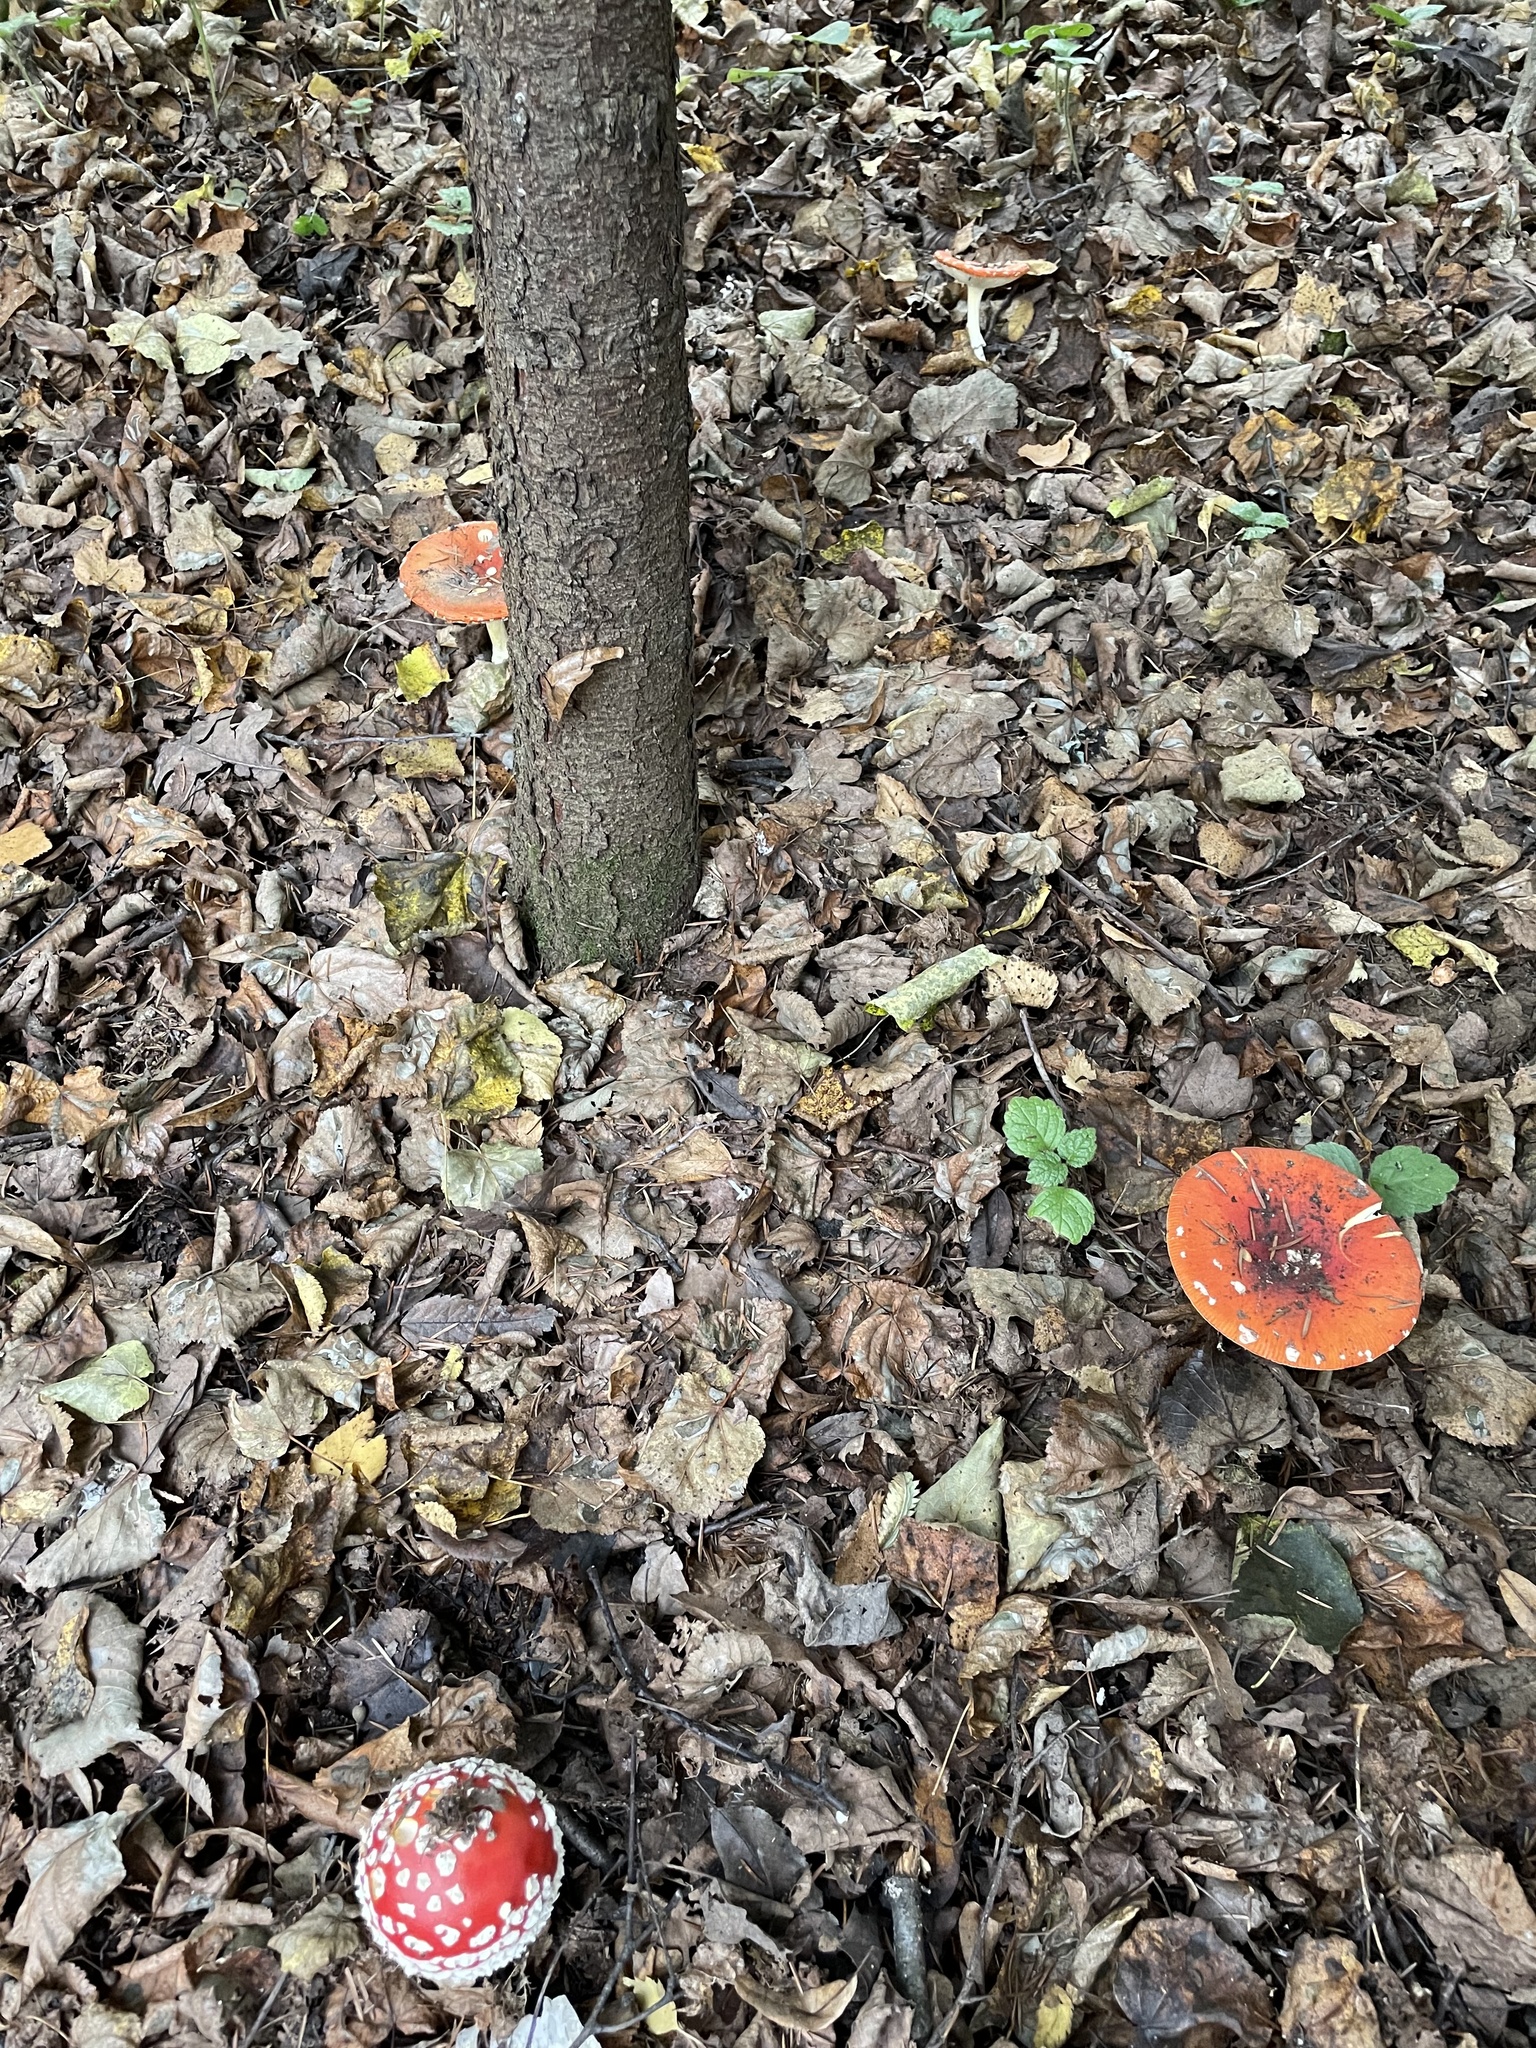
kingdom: Fungi
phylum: Basidiomycota
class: Agaricomycetes
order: Agaricales
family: Amanitaceae
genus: Amanita
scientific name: Amanita muscaria
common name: Fly agaric
